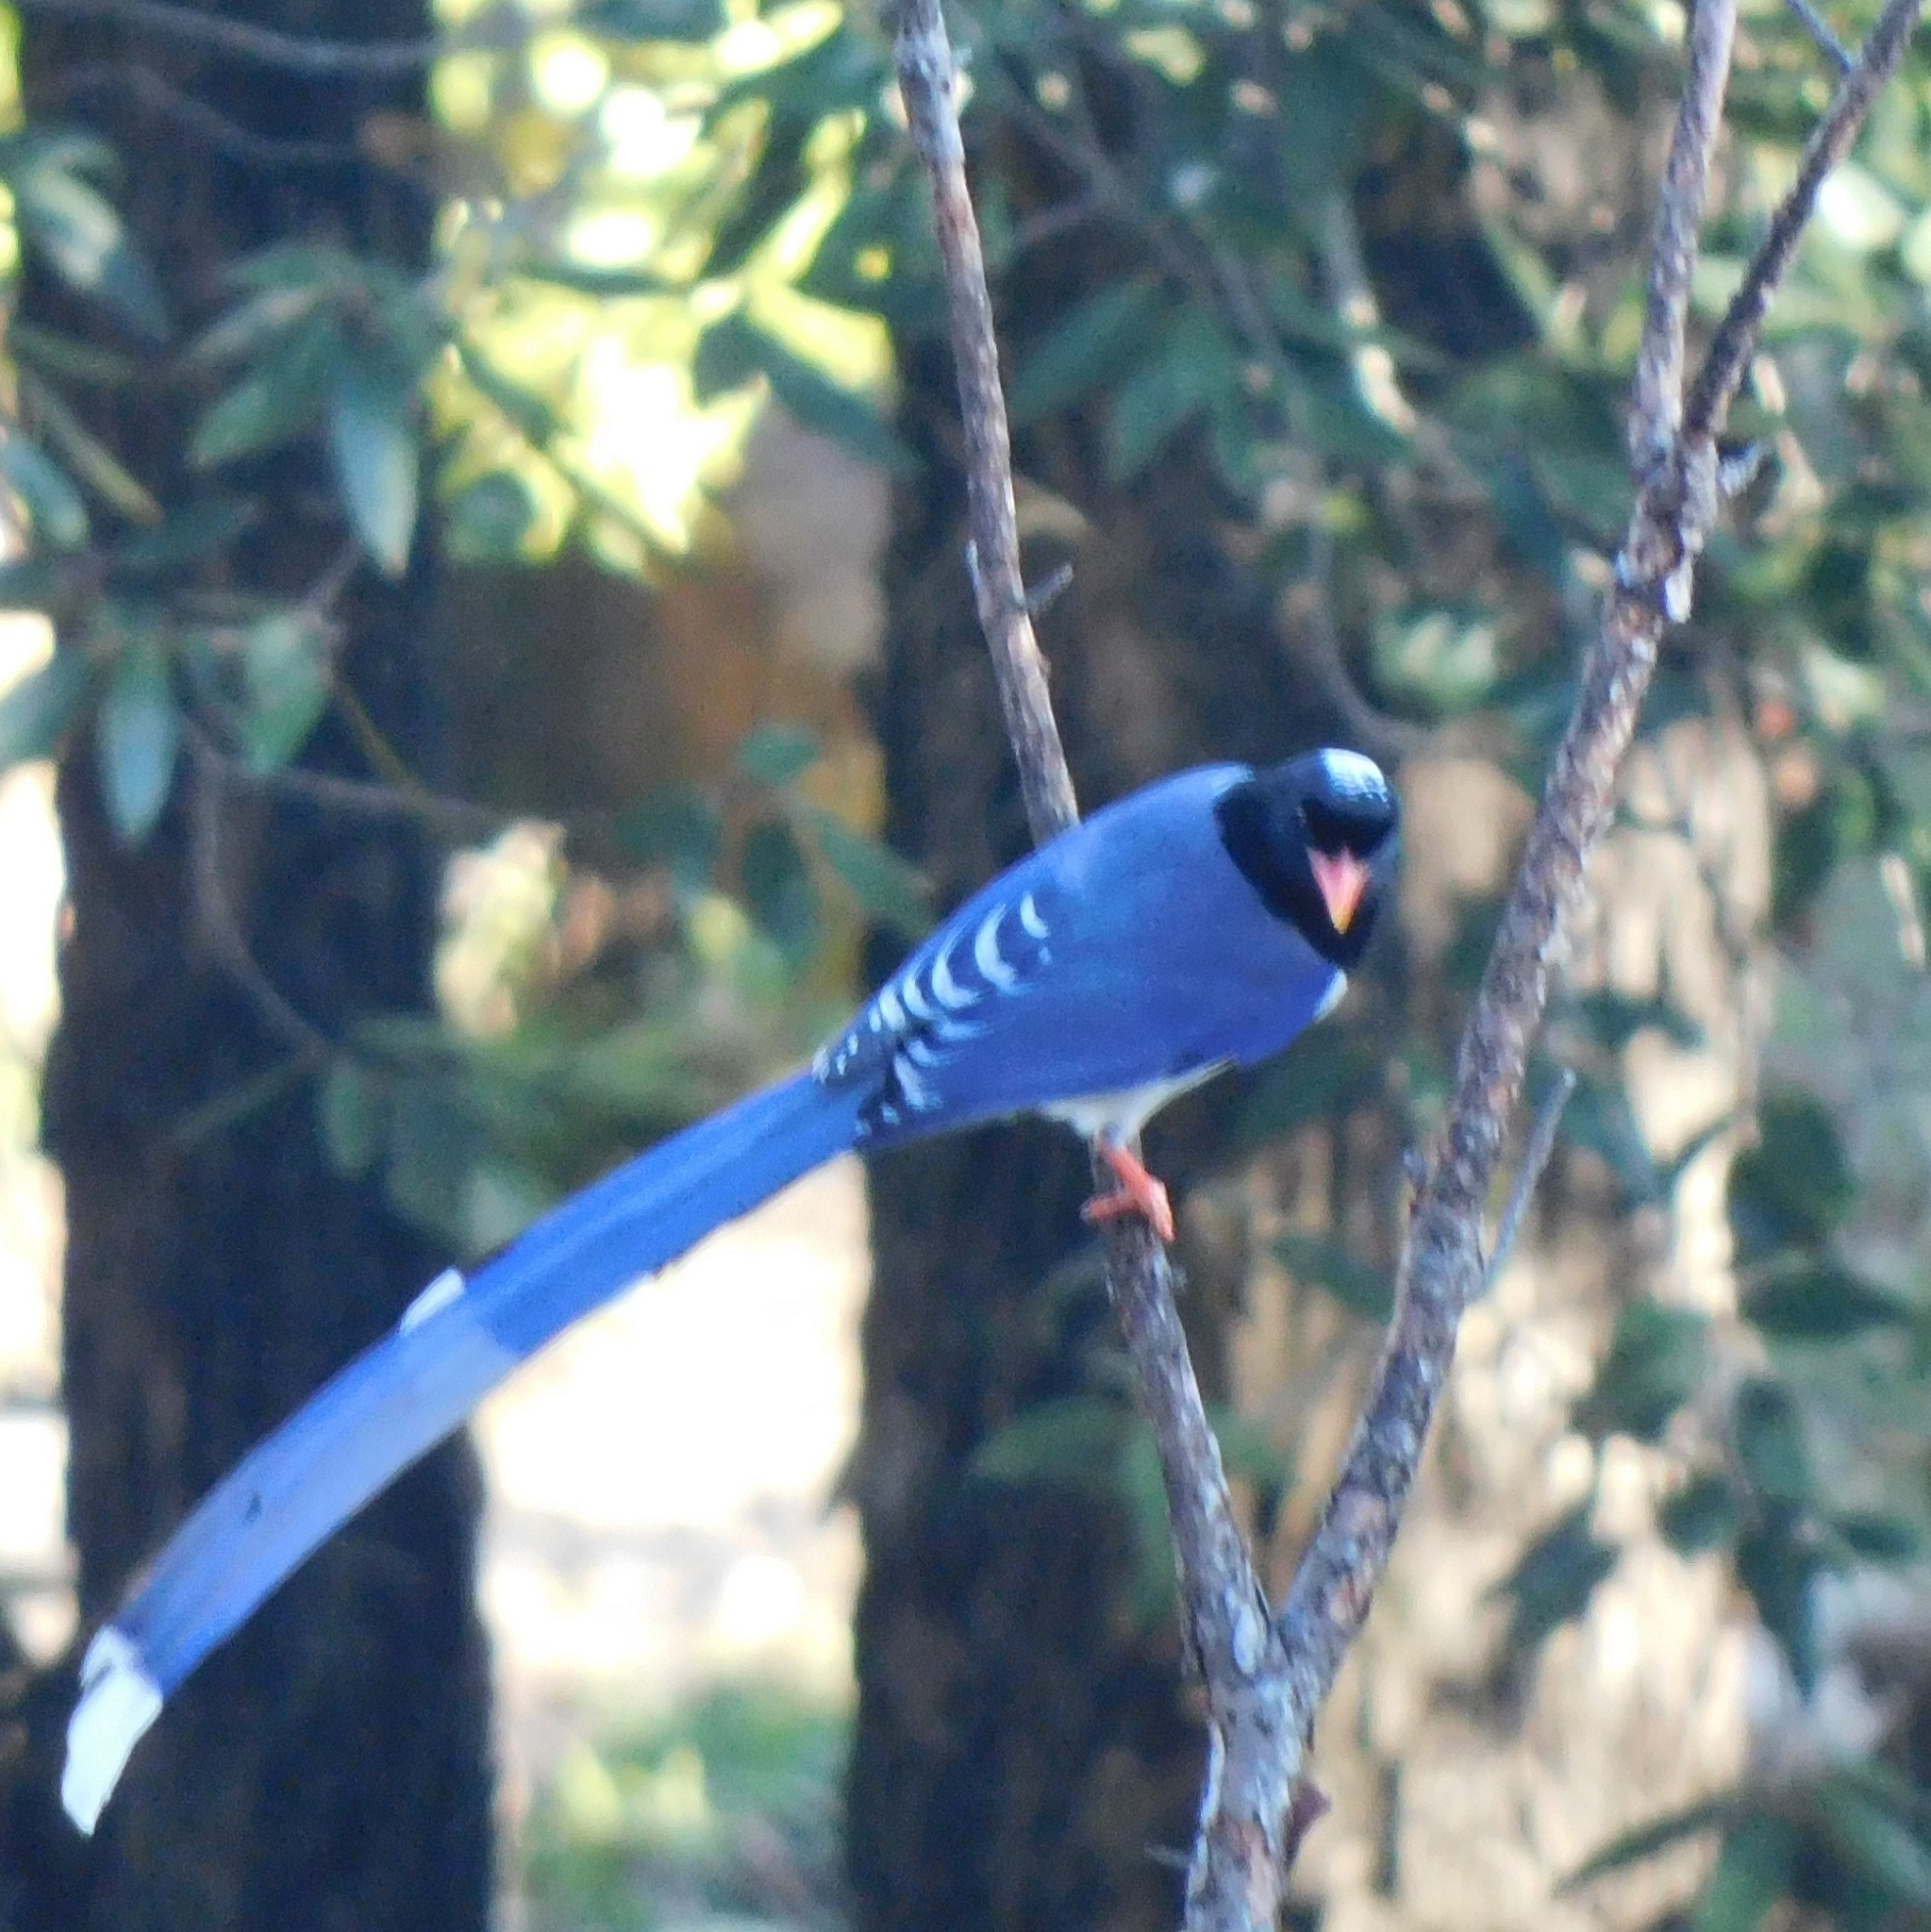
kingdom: Animalia
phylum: Chordata
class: Aves
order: Passeriformes
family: Corvidae
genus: Urocissa
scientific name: Urocissa erythroryncha
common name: Red-billed blue magpie
